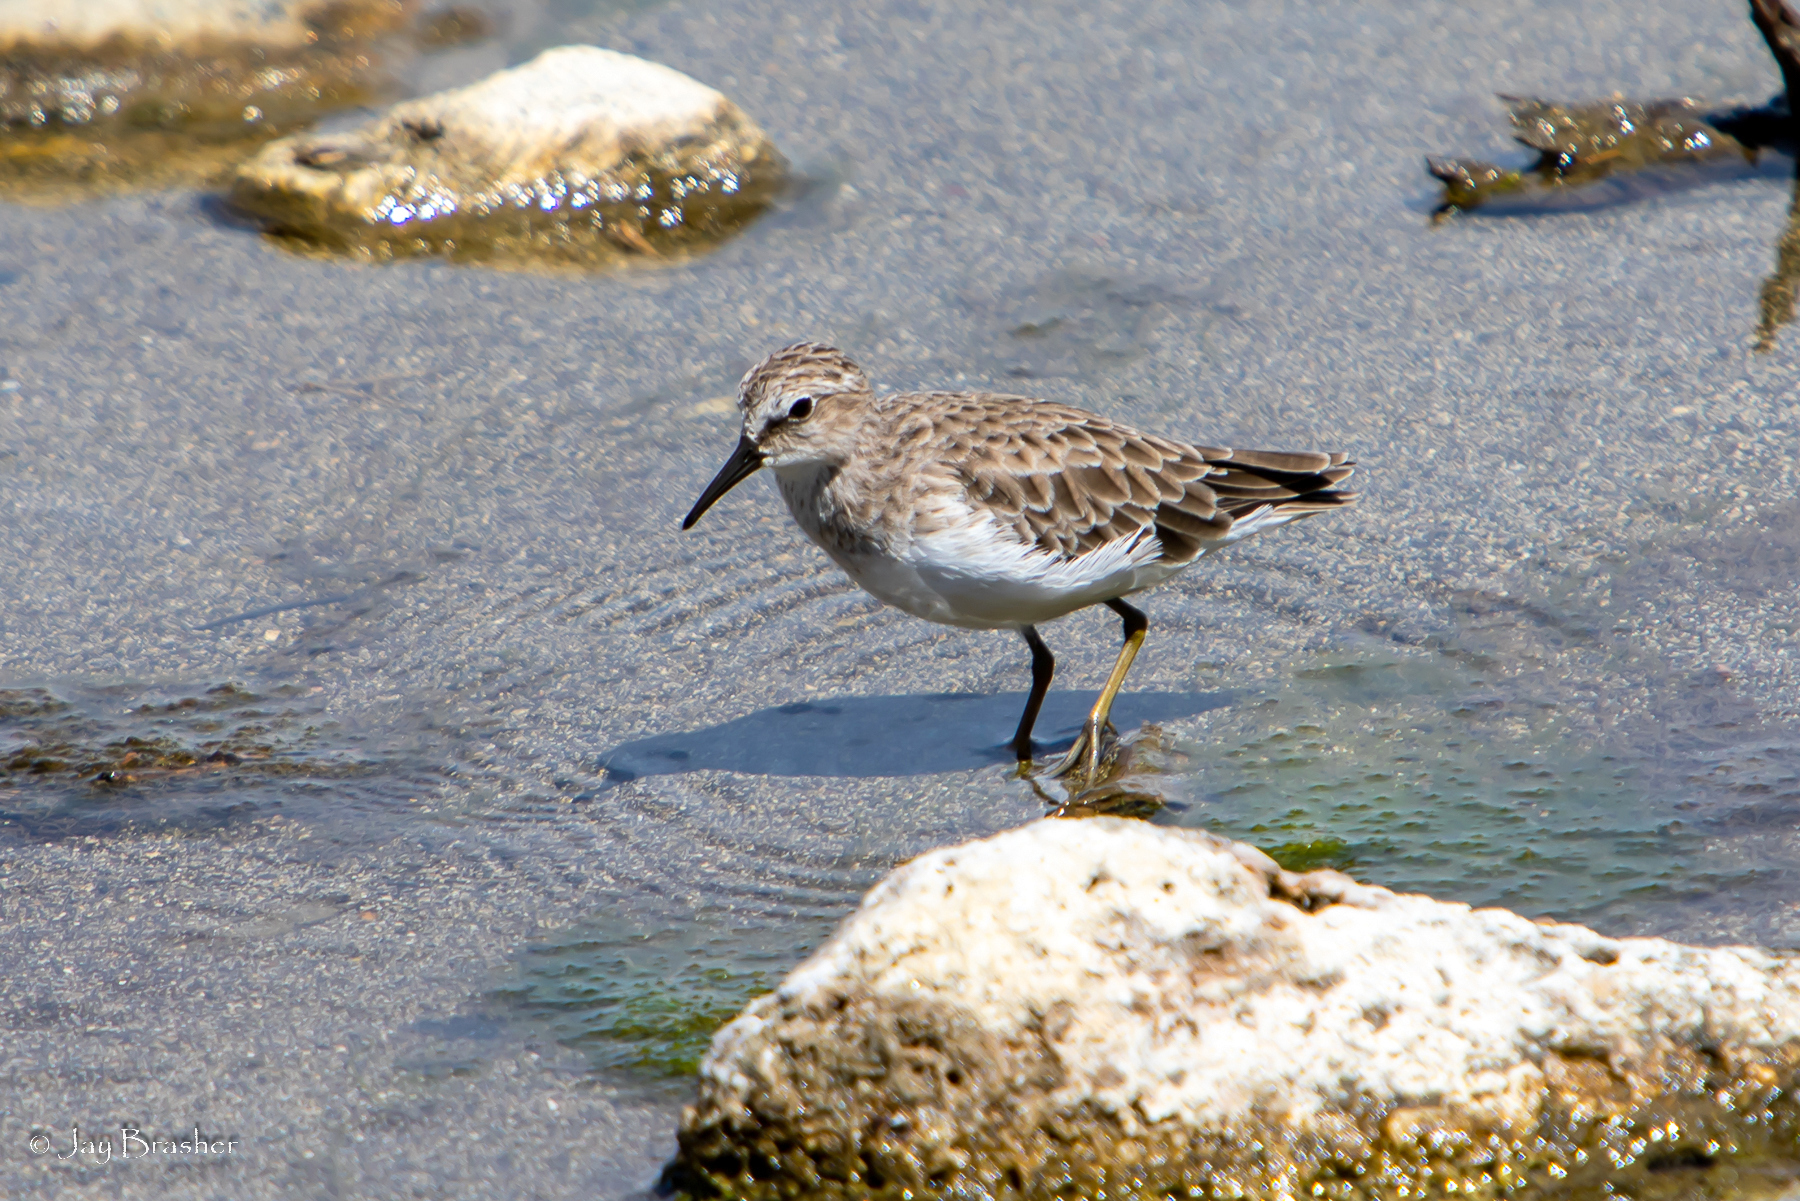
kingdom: Animalia
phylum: Chordata
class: Aves
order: Charadriiformes
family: Scolopacidae
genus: Calidris
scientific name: Calidris pusilla
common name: Semipalmated sandpiper
